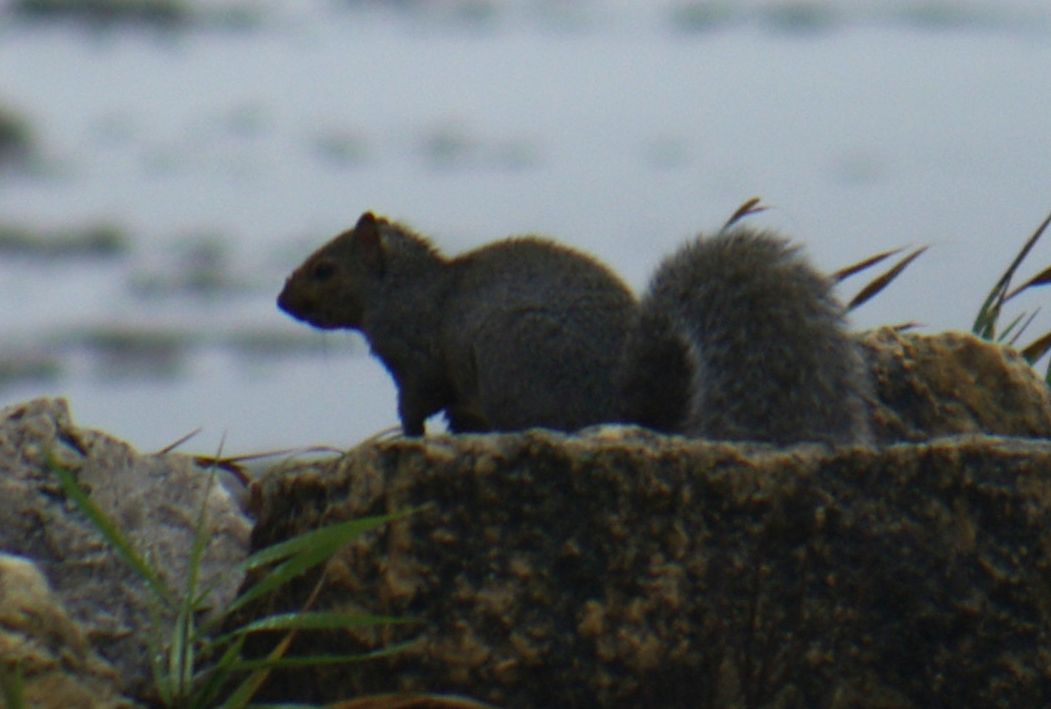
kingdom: Animalia
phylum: Chordata
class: Mammalia
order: Rodentia
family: Sciuridae
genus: Sciurus
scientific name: Sciurus carolinensis
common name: Eastern gray squirrel
